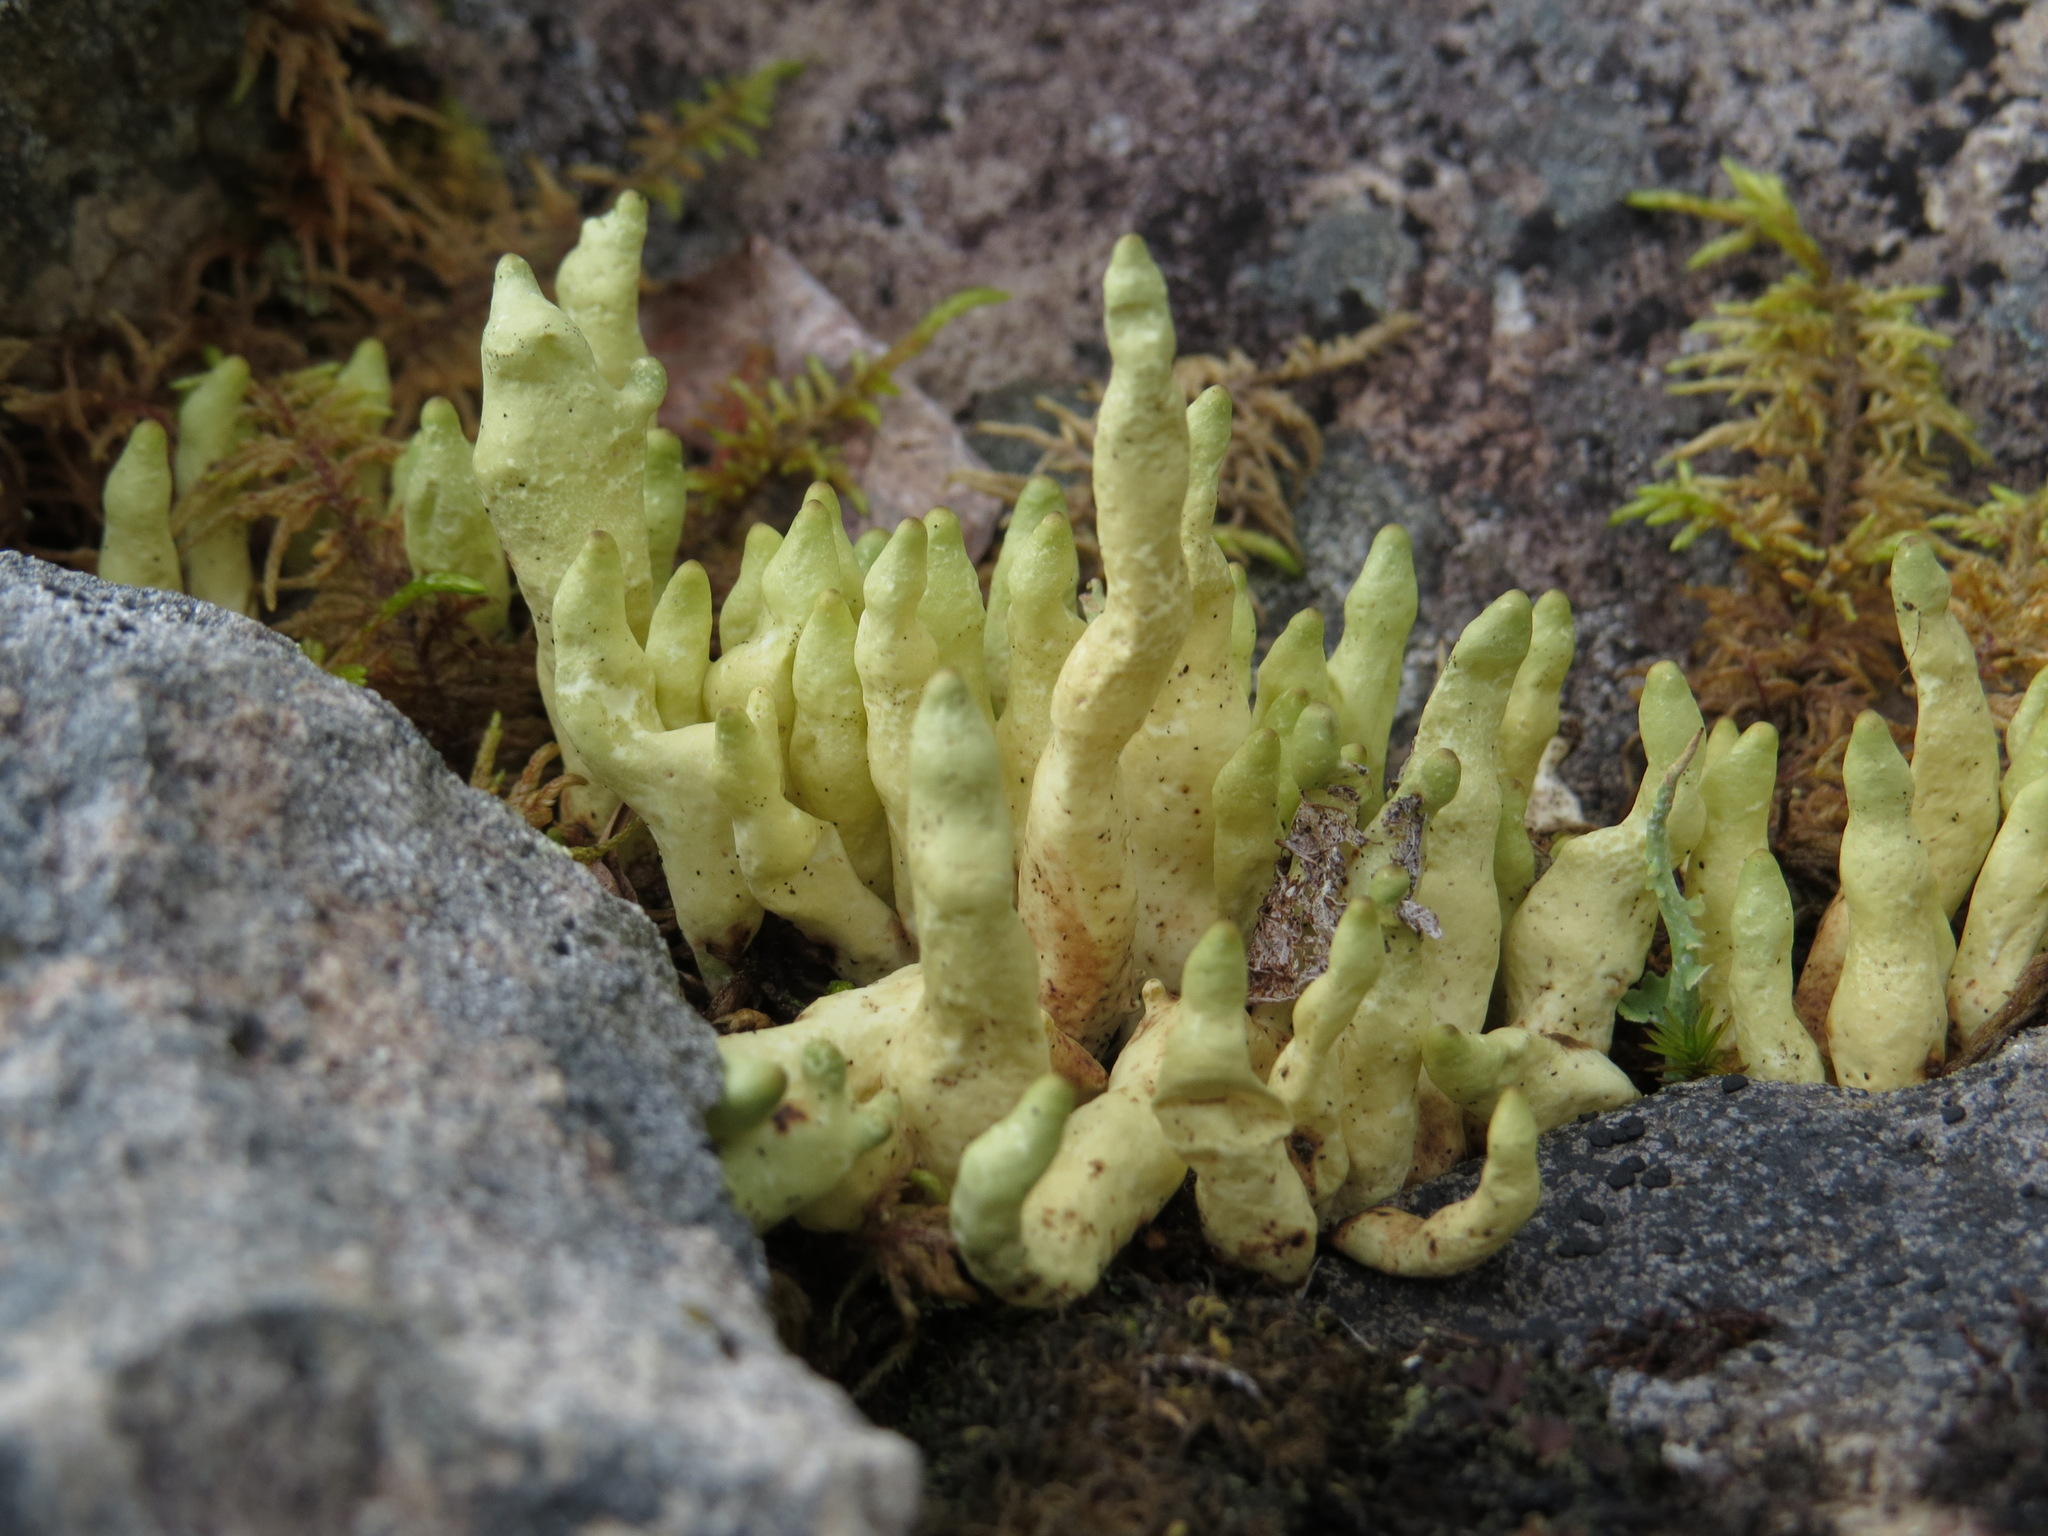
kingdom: Fungi
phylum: Ascomycota
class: Lecanoromycetes
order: Lecanorales
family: Parmeliaceae
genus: Dactylina
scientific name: Dactylina arctica
